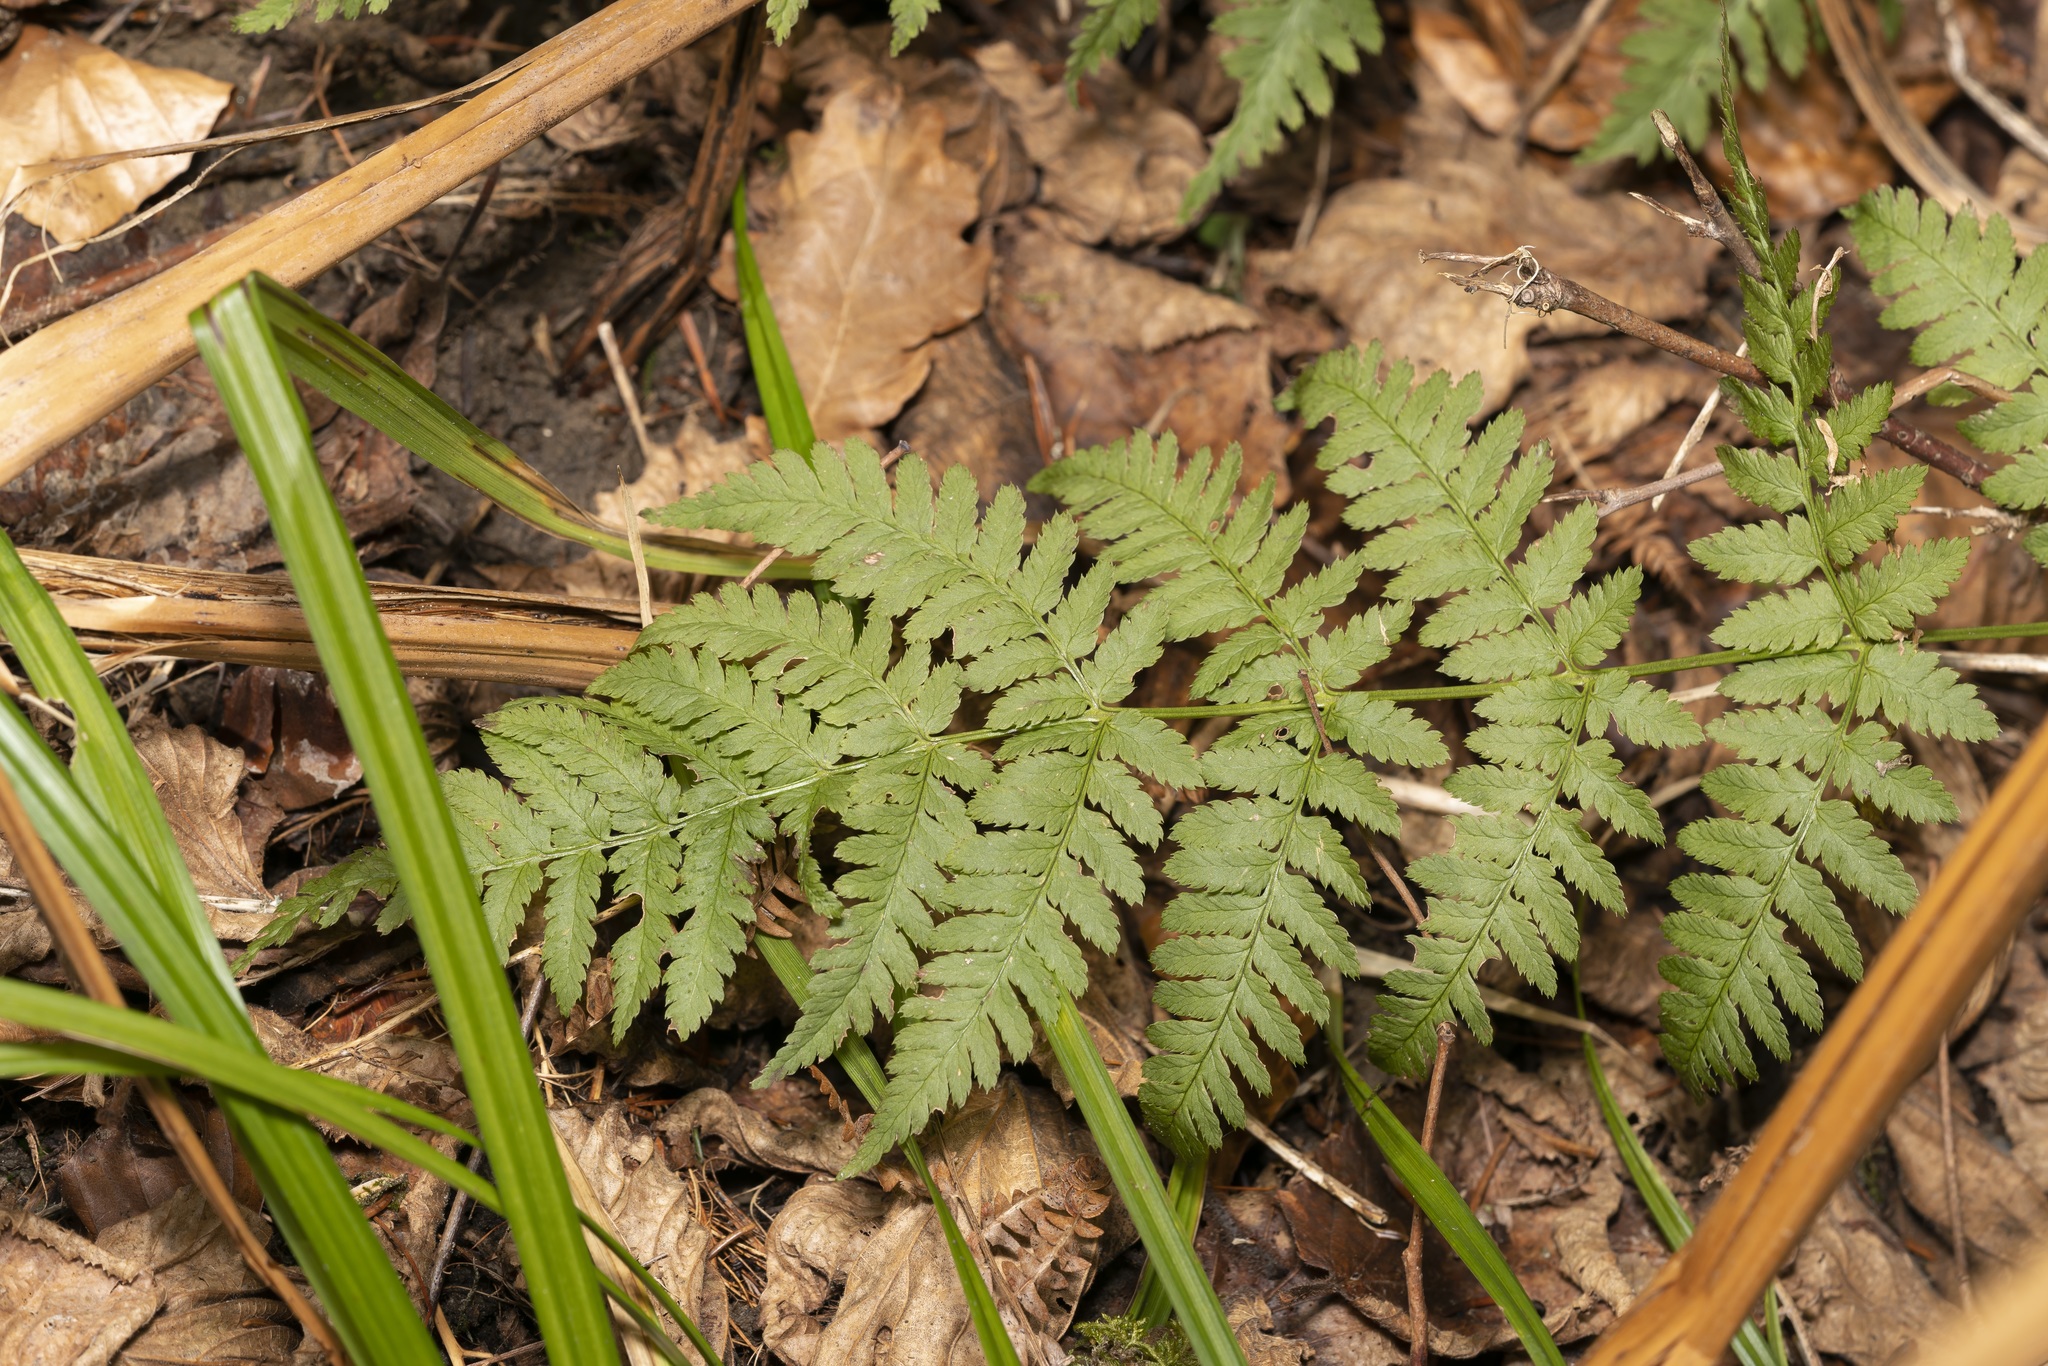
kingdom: Plantae
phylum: Tracheophyta
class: Polypodiopsida
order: Polypodiales
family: Dryopteridaceae
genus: Dryopteris
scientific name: Dryopteris carthusiana
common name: Narrow buckler-fern
